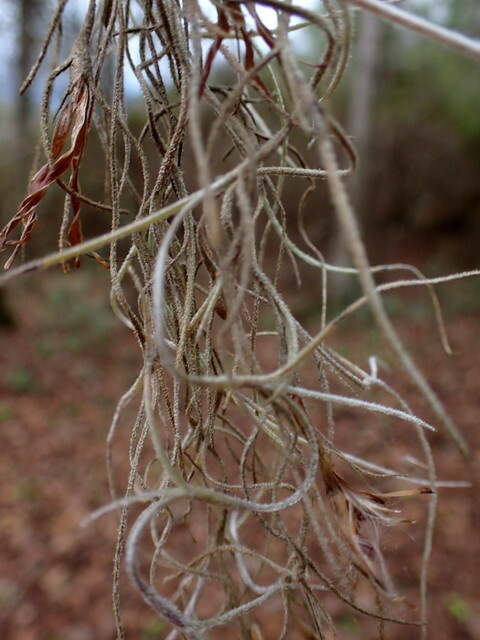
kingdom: Plantae
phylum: Tracheophyta
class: Liliopsida
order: Poales
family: Bromeliaceae
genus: Tillandsia
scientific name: Tillandsia usneoides
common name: Spanish moss
